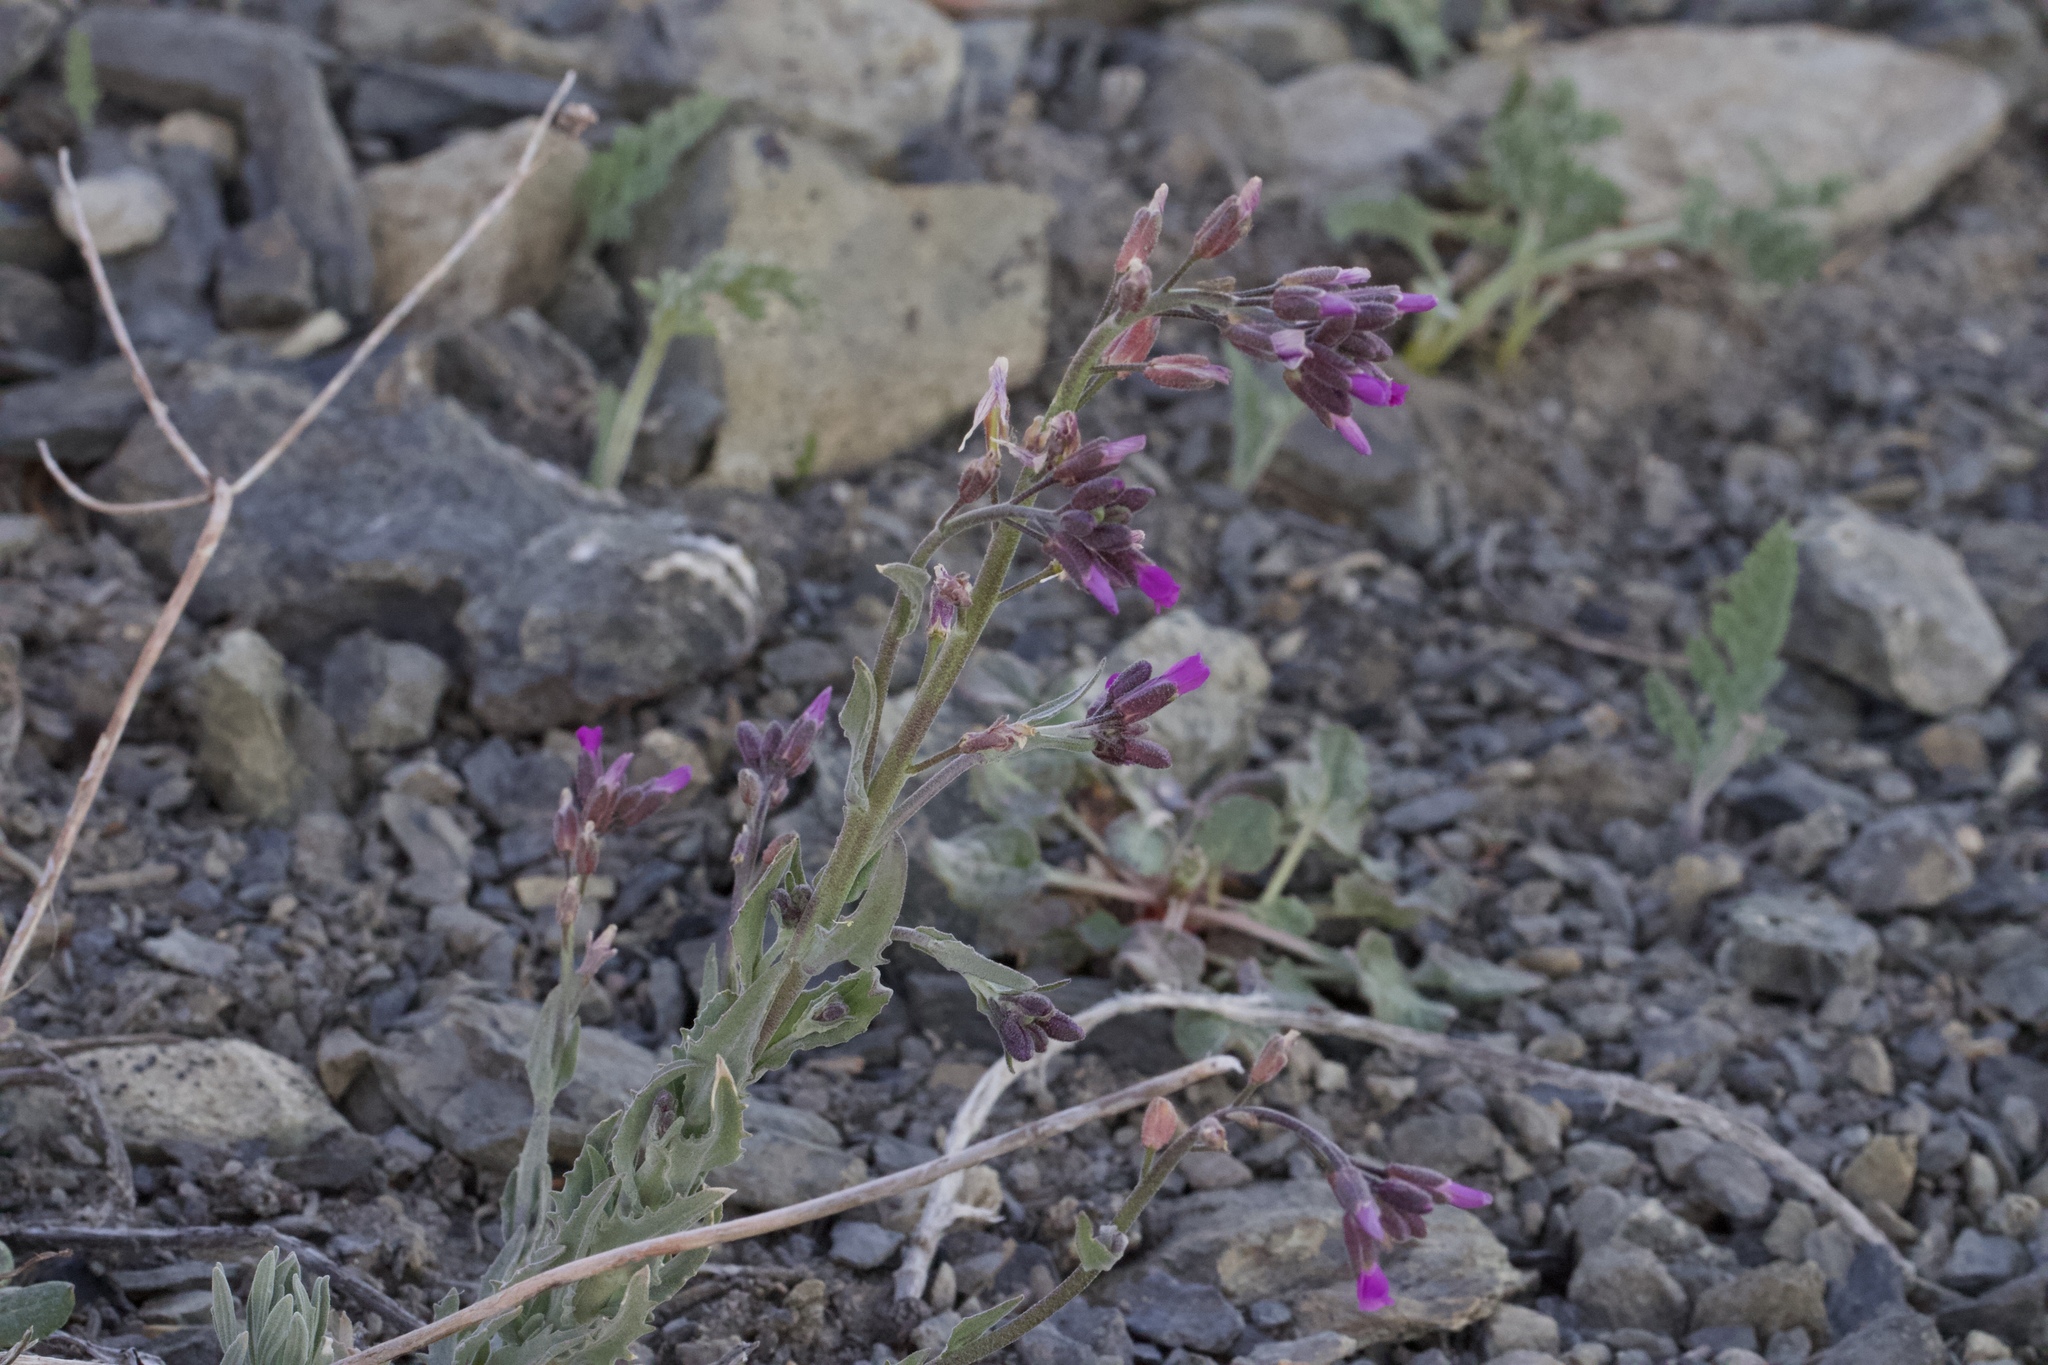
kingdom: Plantae
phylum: Tracheophyta
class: Magnoliopsida
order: Brassicales
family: Brassicaceae
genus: Boechera
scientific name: Boechera subpinnatifida
